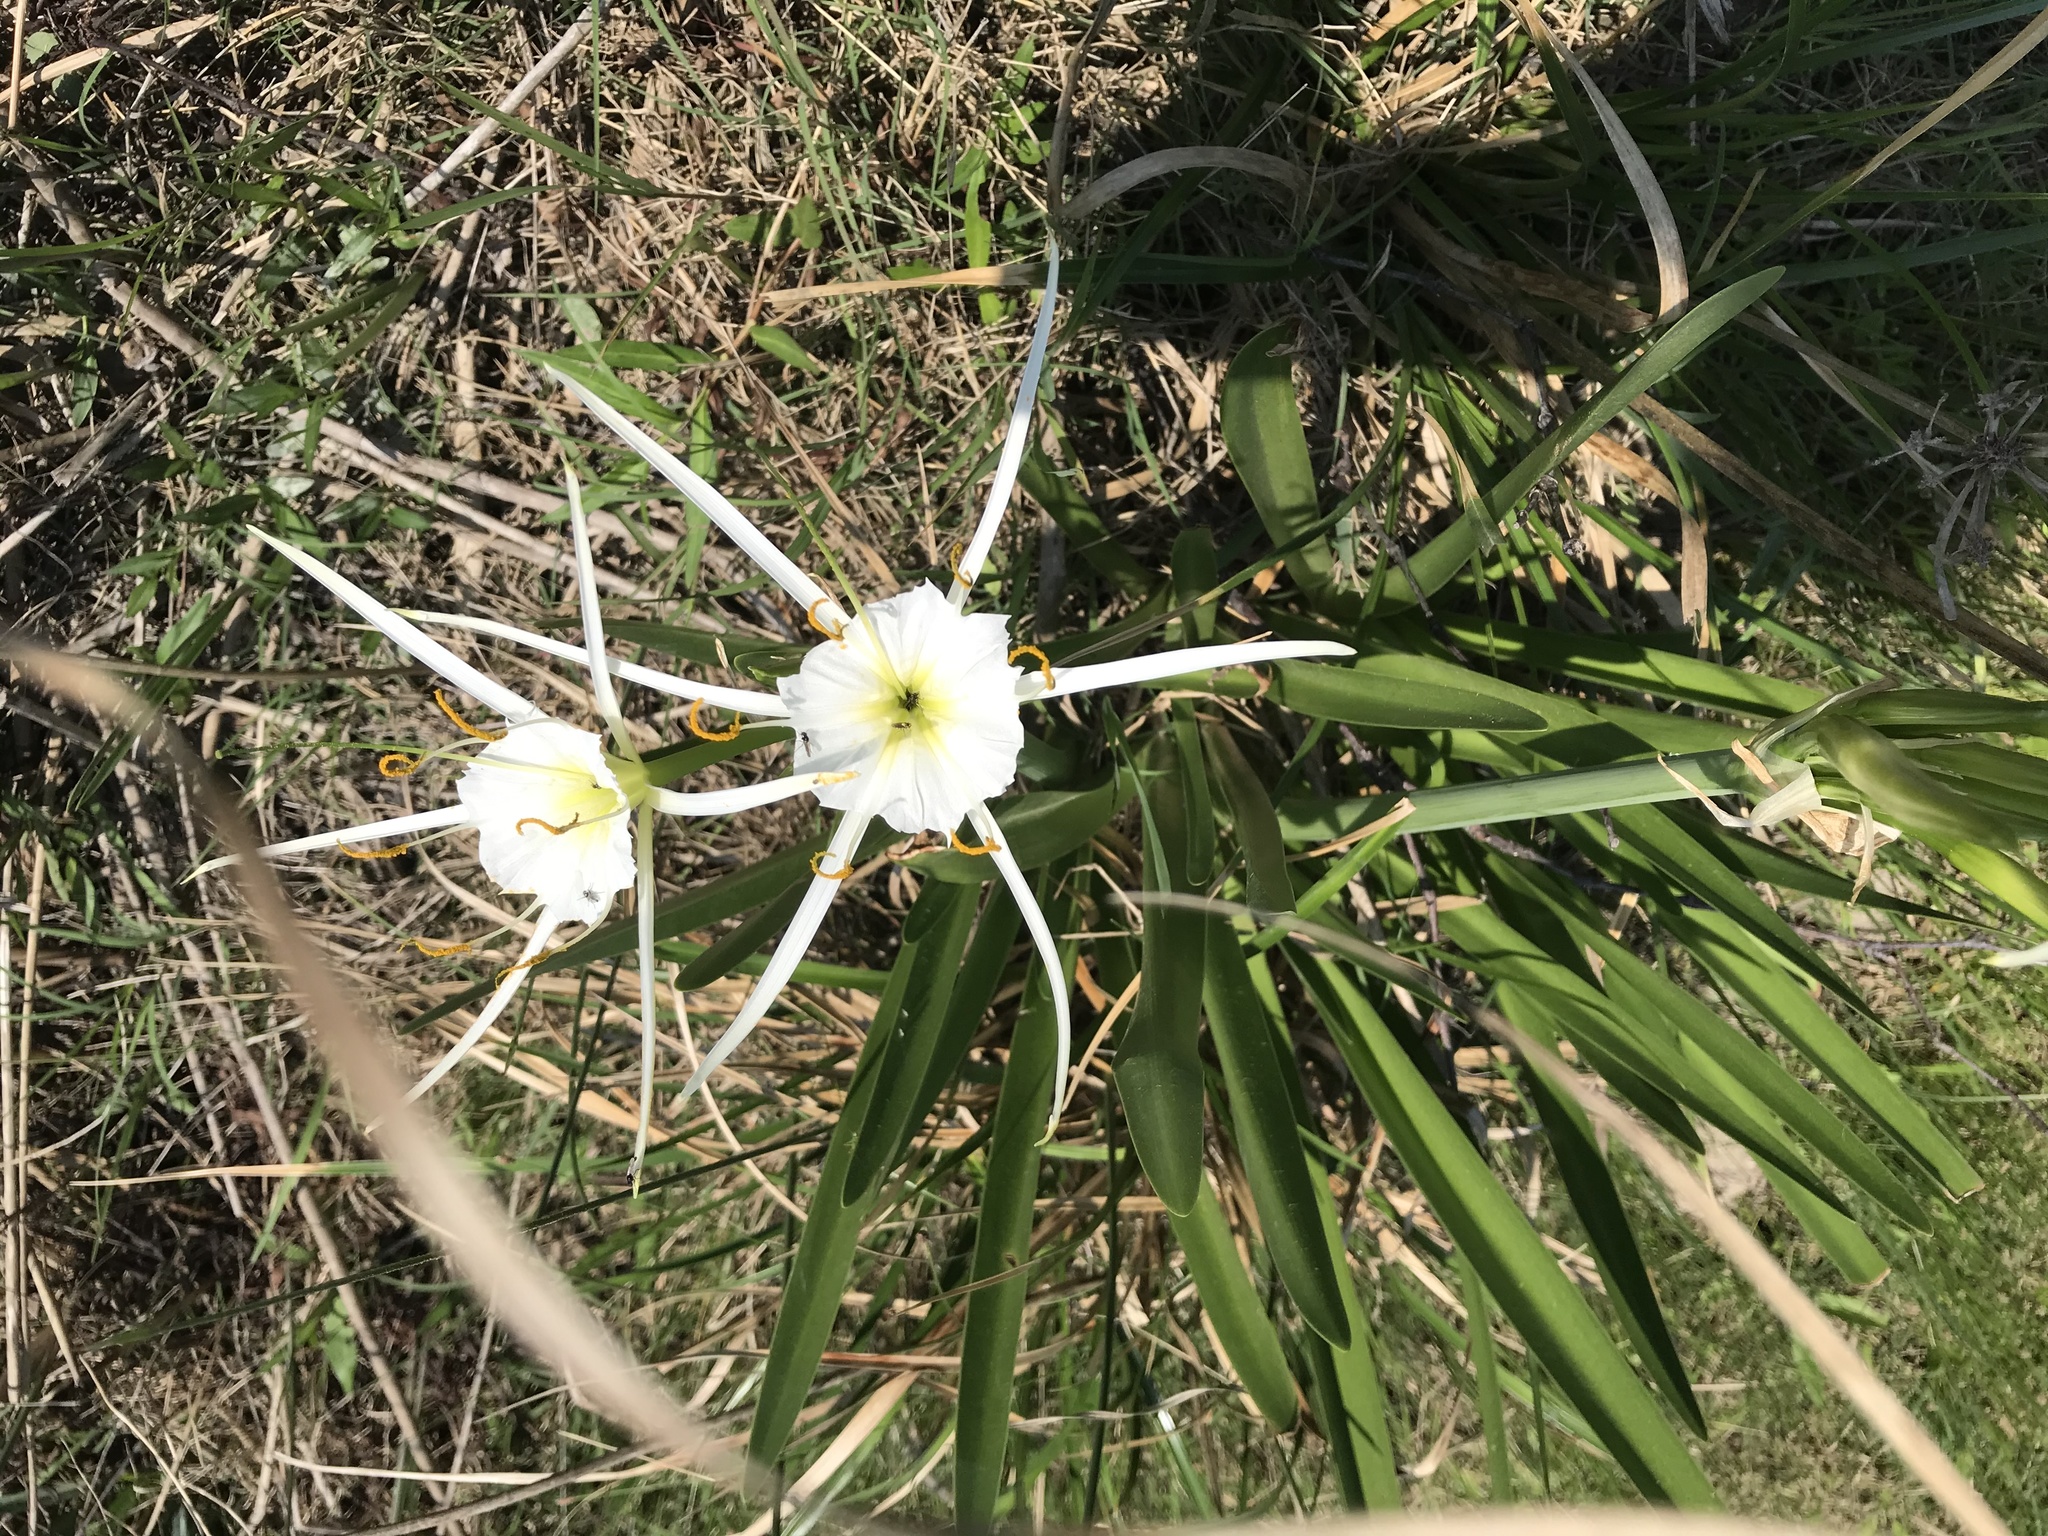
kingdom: Plantae
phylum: Tracheophyta
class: Liliopsida
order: Asparagales
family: Amaryllidaceae
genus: Hymenocallis
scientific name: Hymenocallis liriosme
